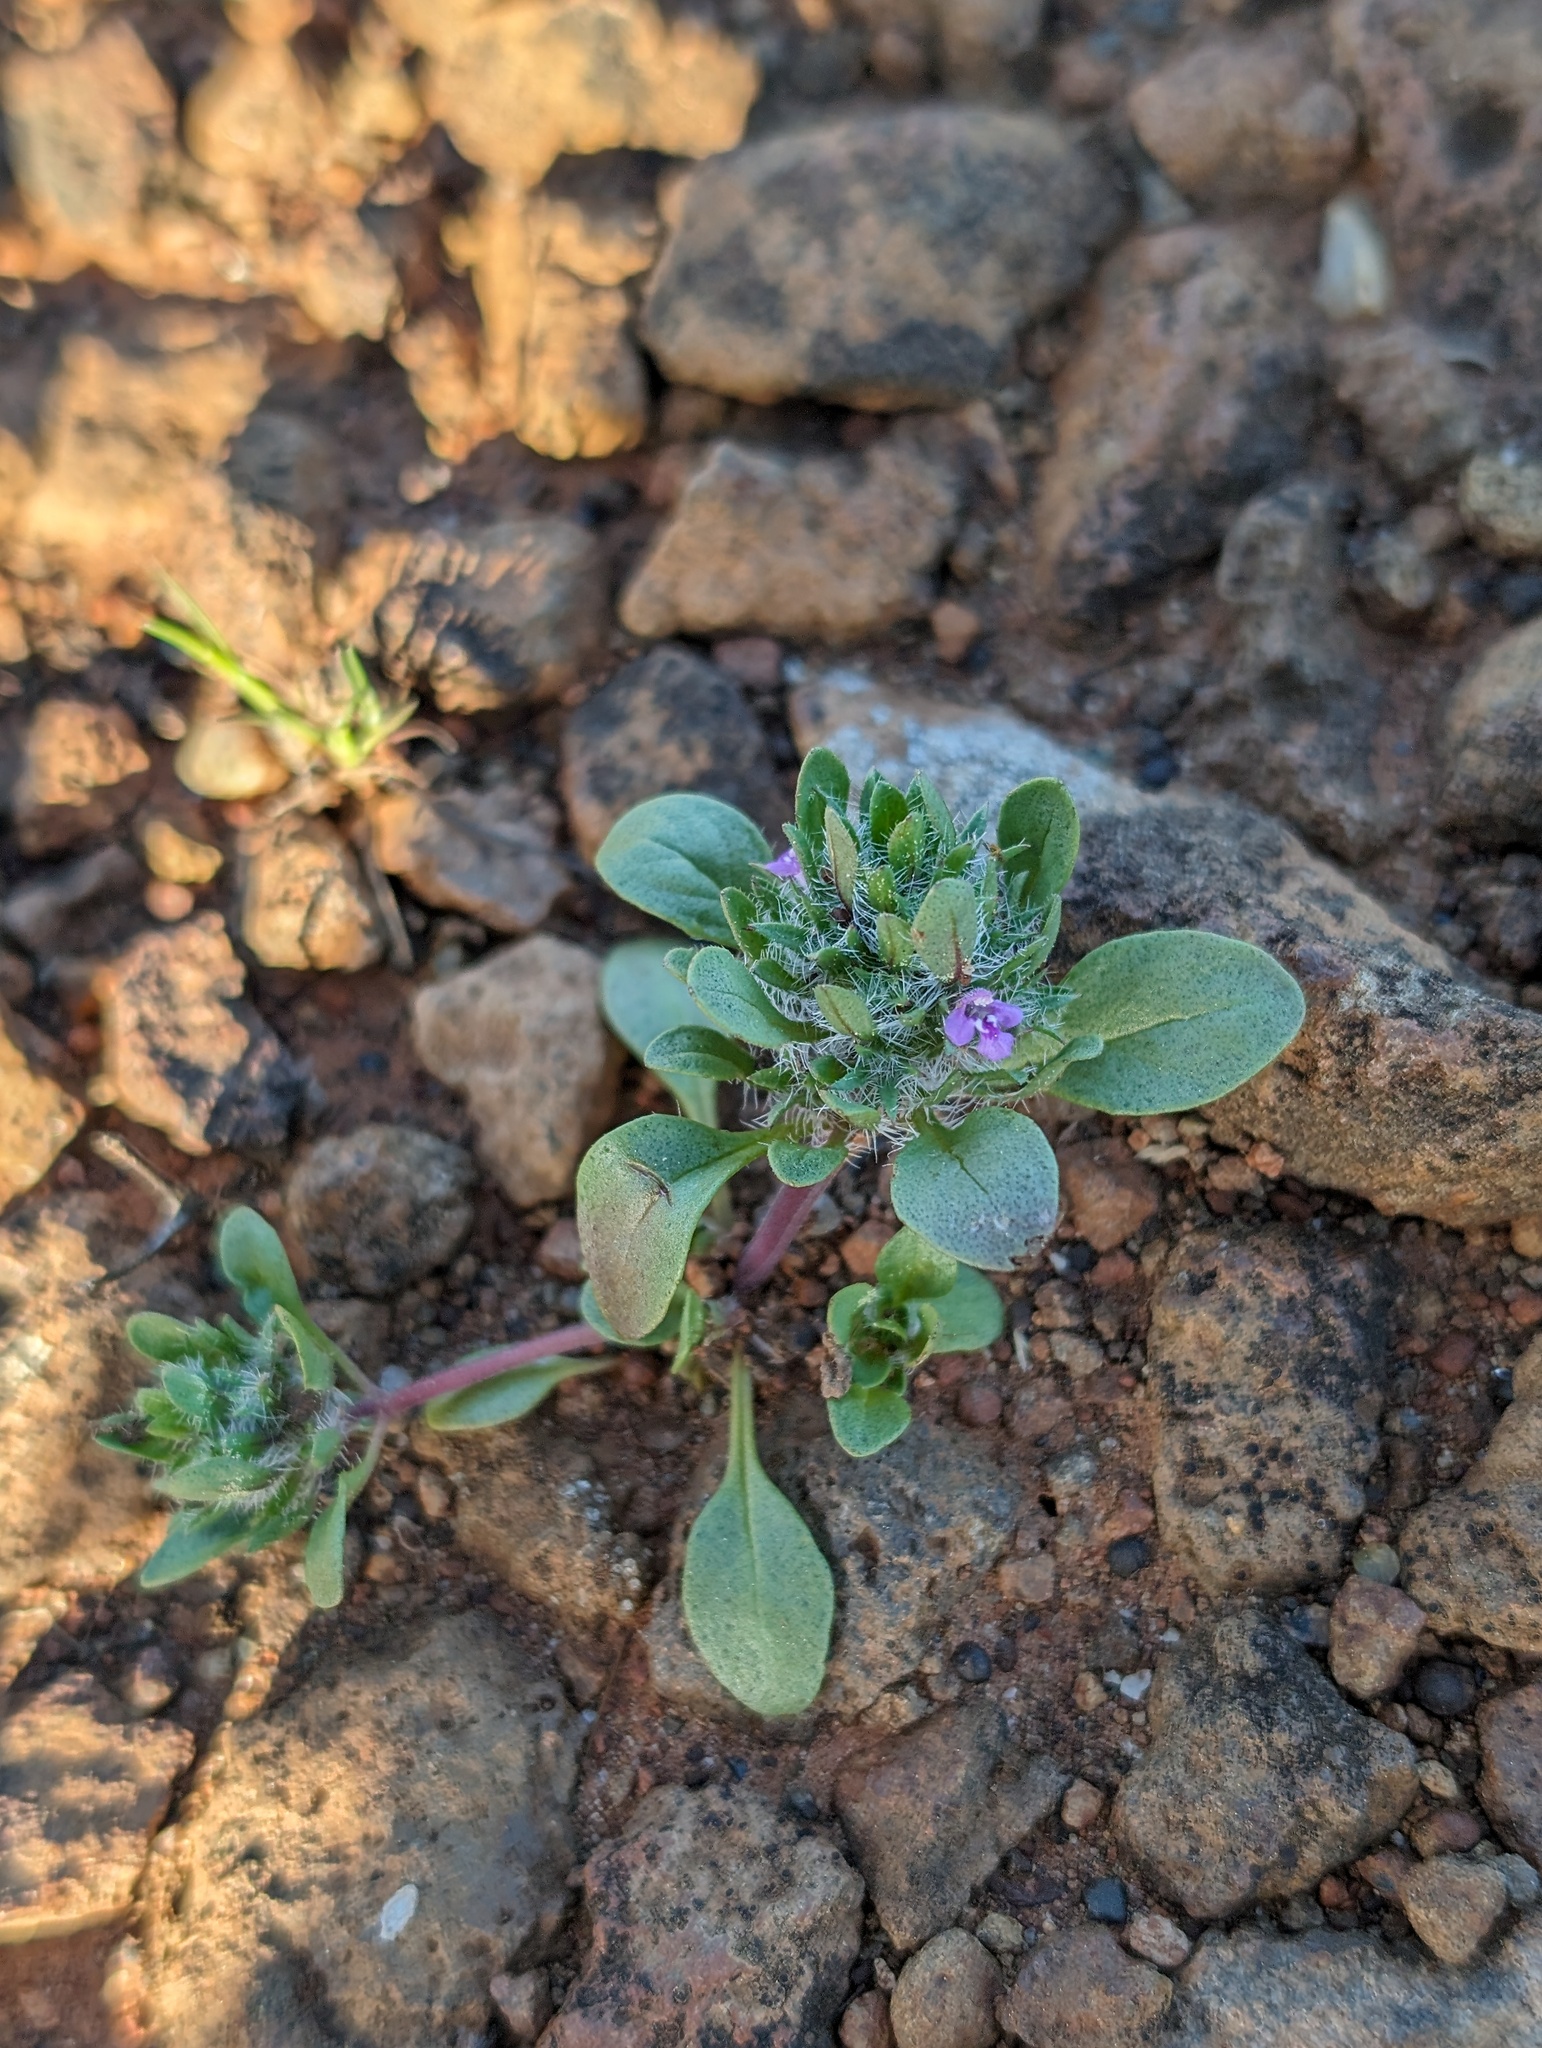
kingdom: Plantae
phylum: Tracheophyta
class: Magnoliopsida
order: Lamiales
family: Lamiaceae
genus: Pogogyne
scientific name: Pogogyne zizyphoroides
